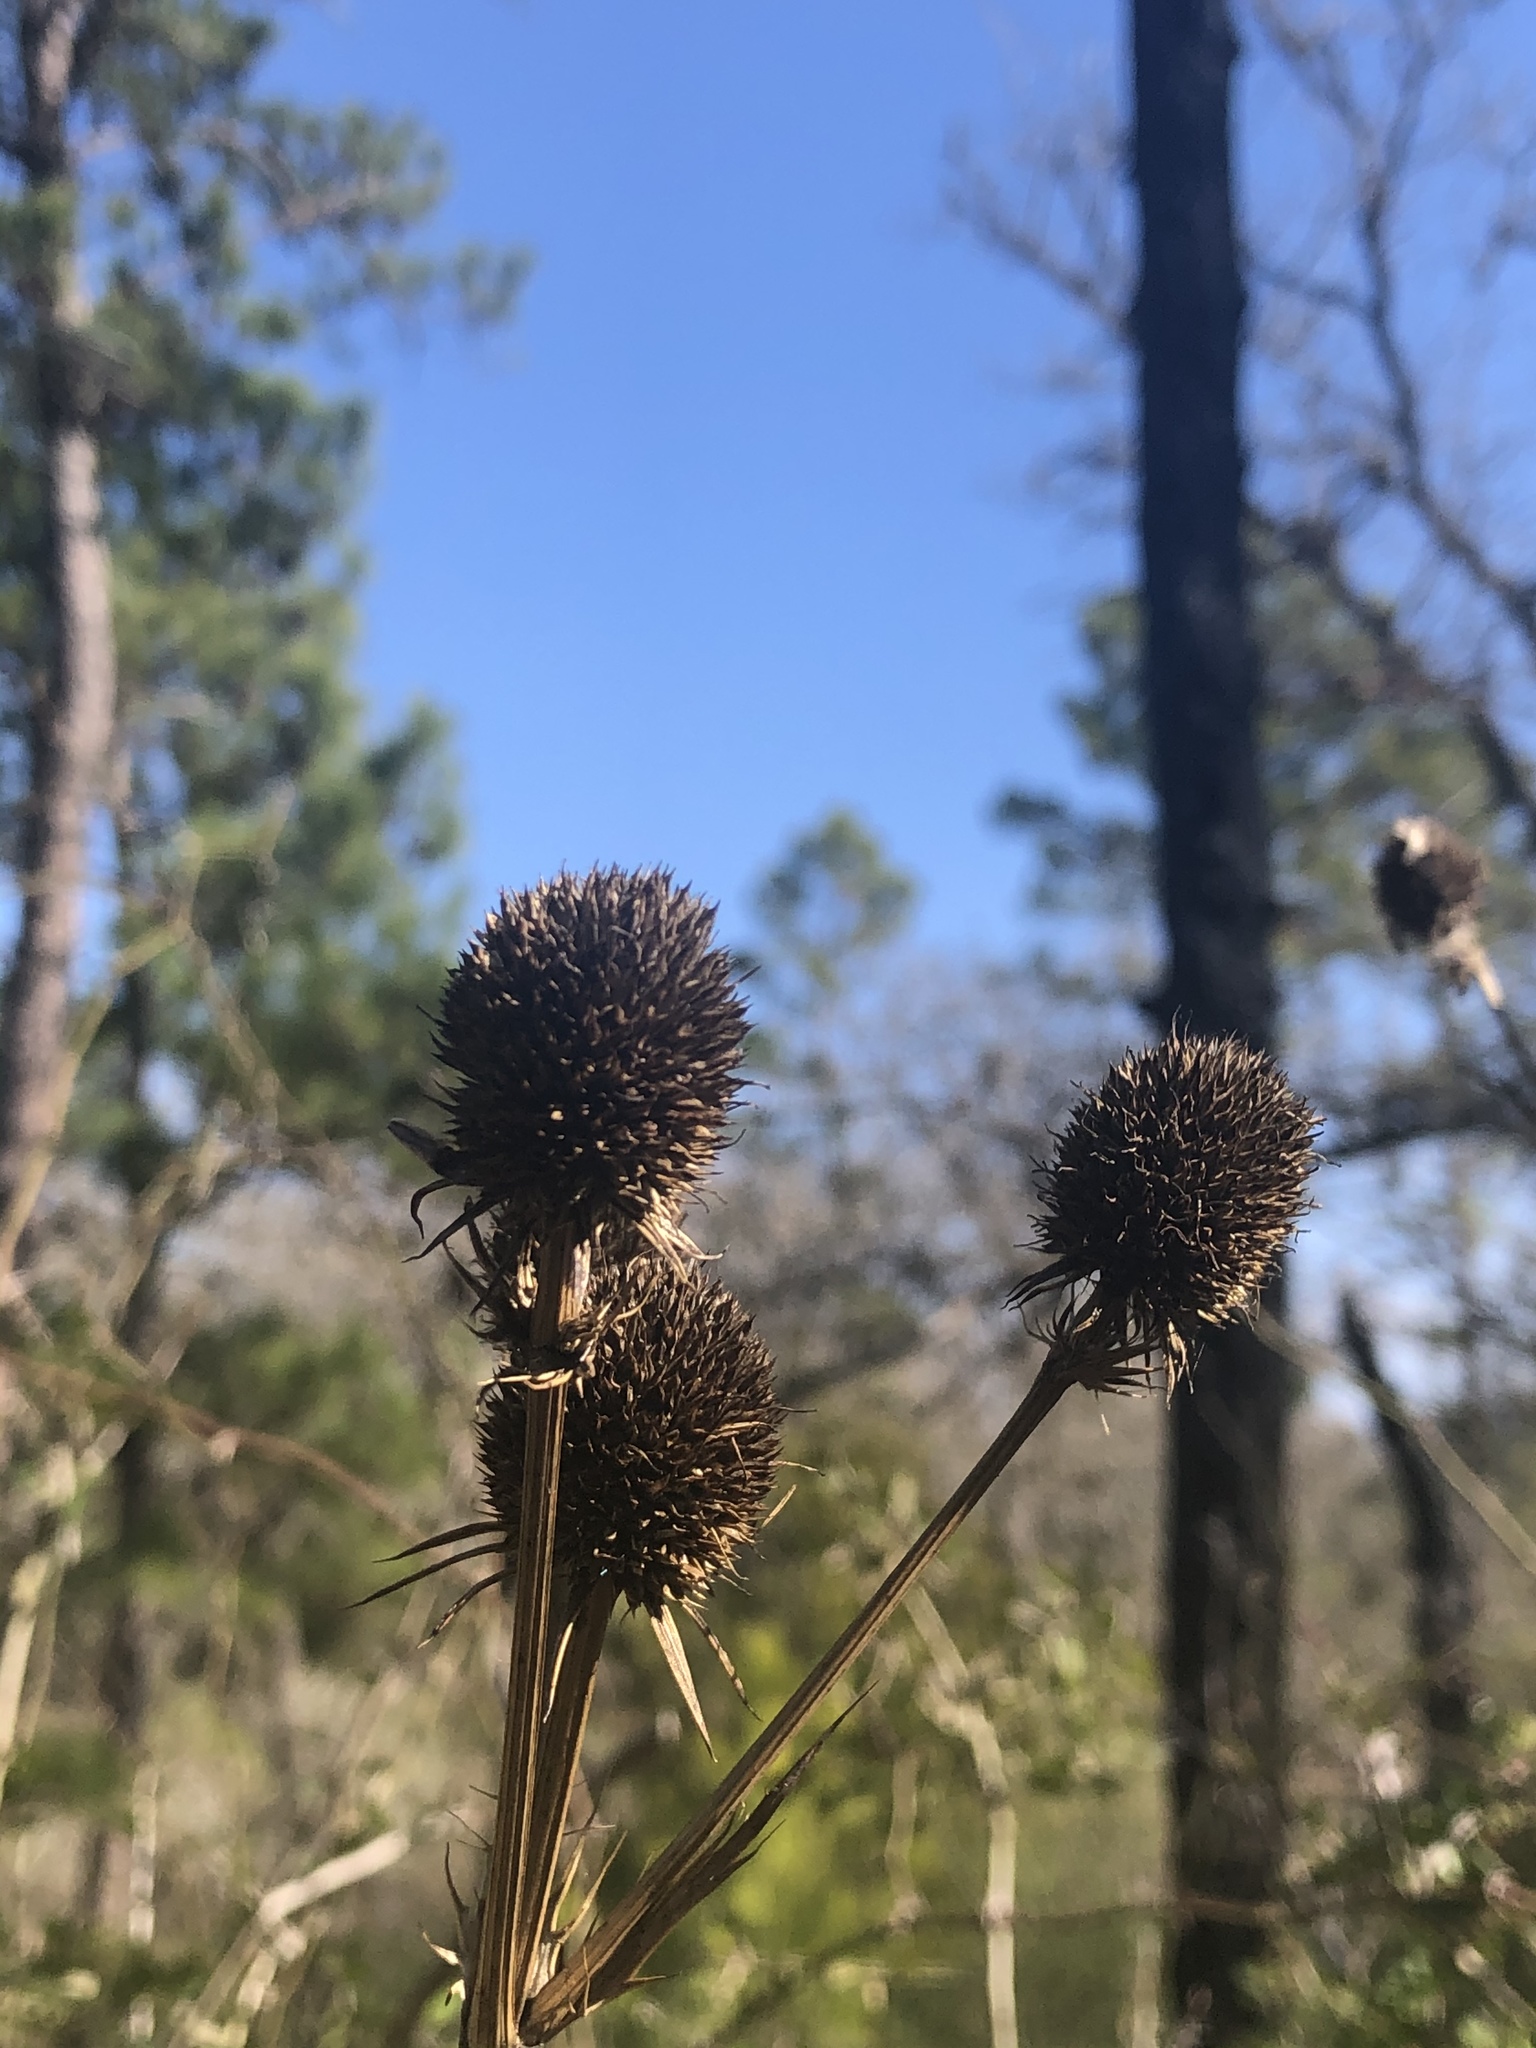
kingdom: Plantae
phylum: Tracheophyta
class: Magnoliopsida
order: Apiales
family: Apiaceae
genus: Eryngium
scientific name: Eryngium yuccifolium
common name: Button eryngo
